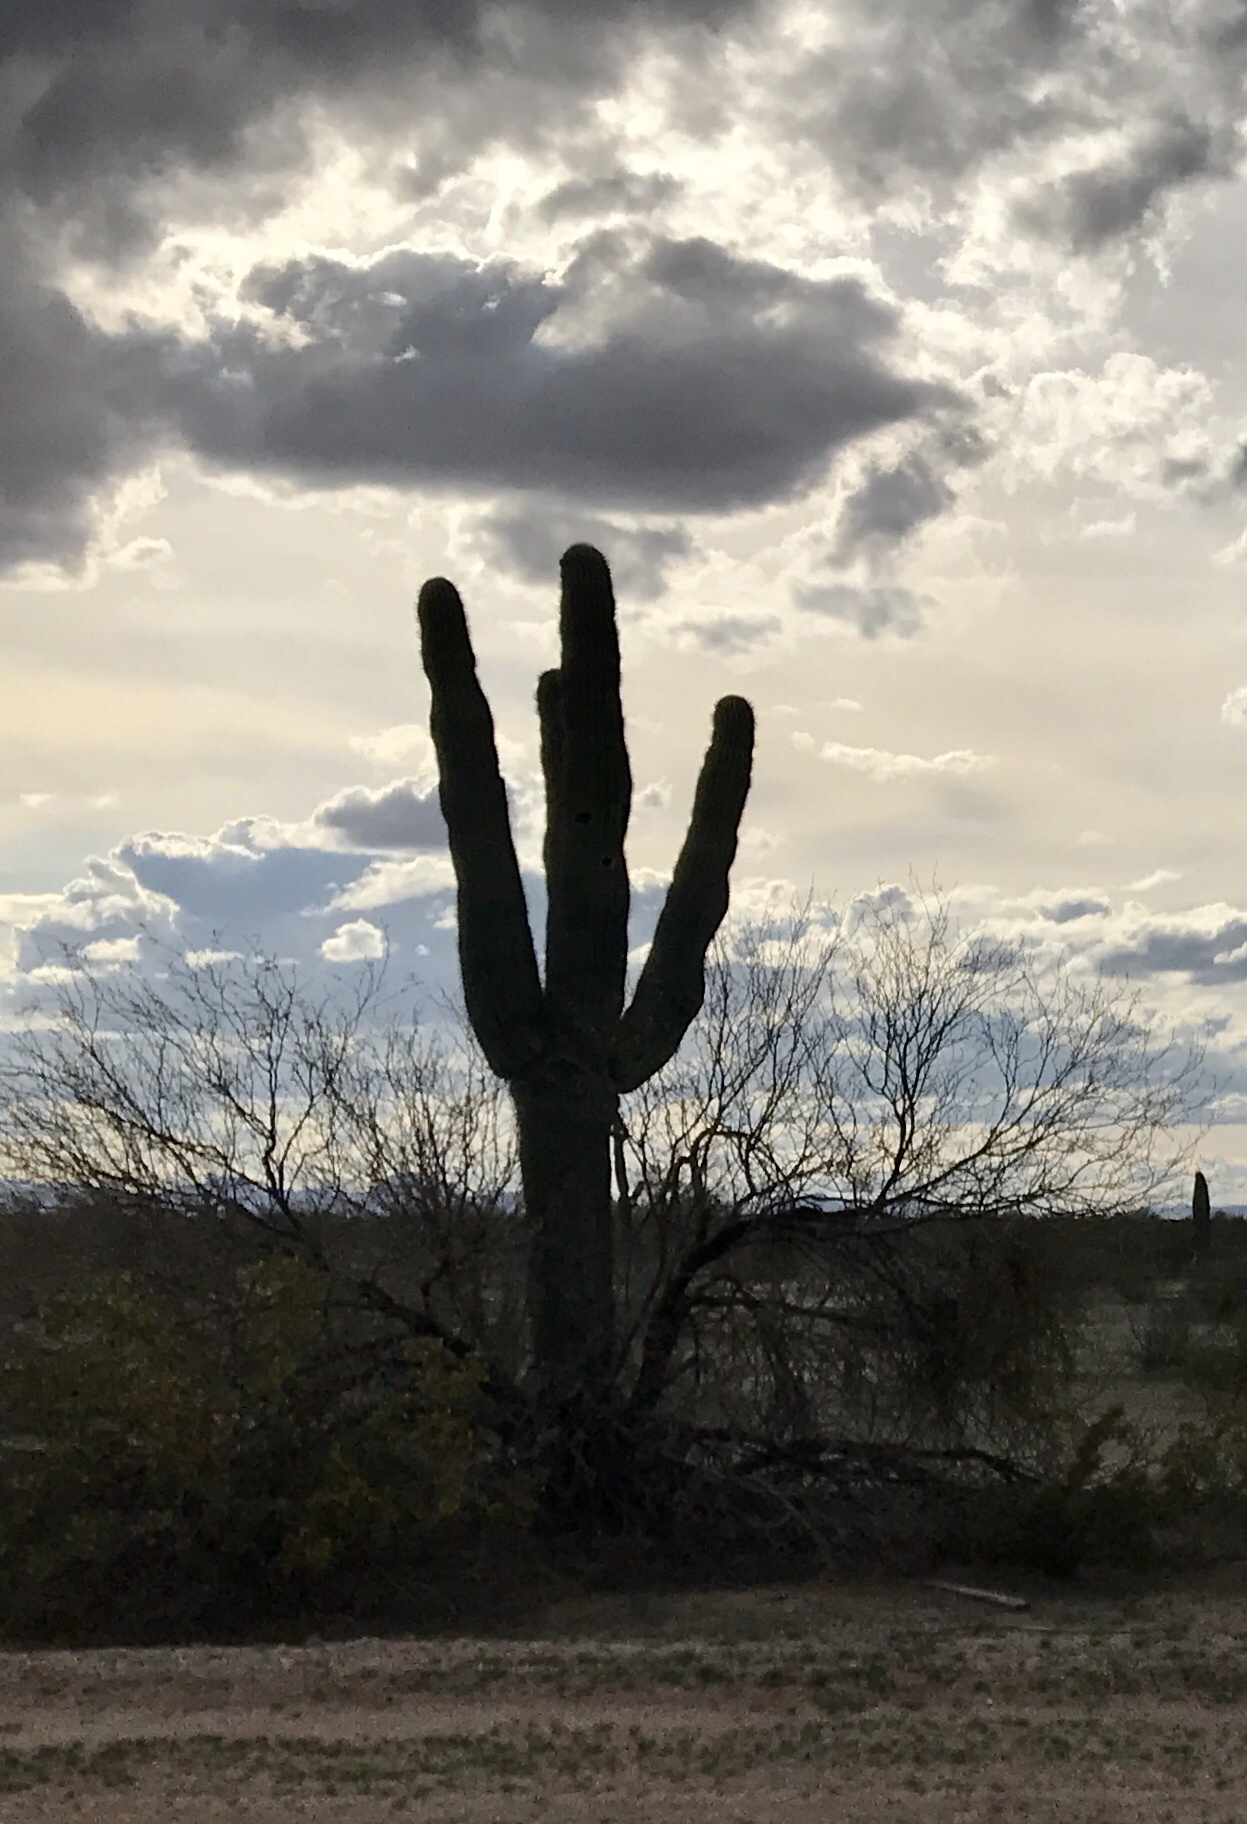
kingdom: Plantae
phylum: Tracheophyta
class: Magnoliopsida
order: Caryophyllales
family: Cactaceae
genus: Carnegiea
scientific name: Carnegiea gigantea
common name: Saguaro
